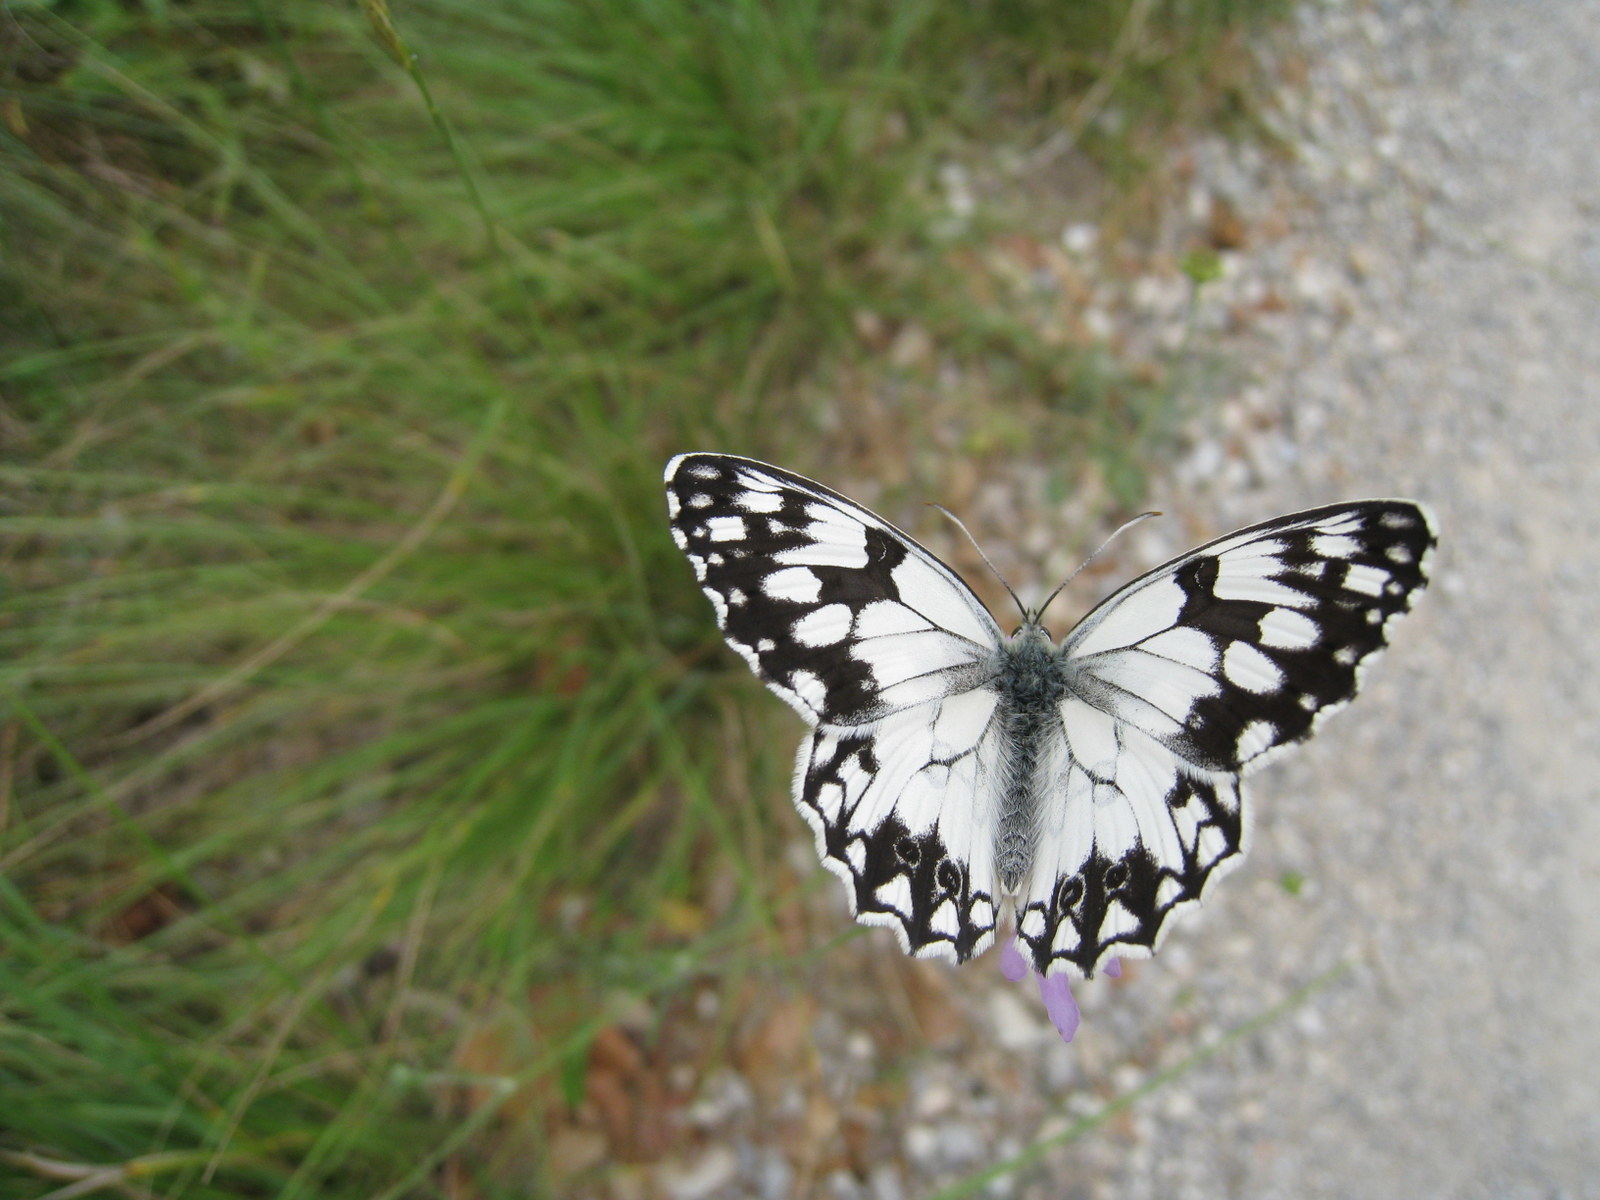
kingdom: Animalia
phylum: Arthropoda
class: Insecta
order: Lepidoptera
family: Nymphalidae
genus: Melanargia
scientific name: Melanargia lachesis
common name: Iberian marbled white
